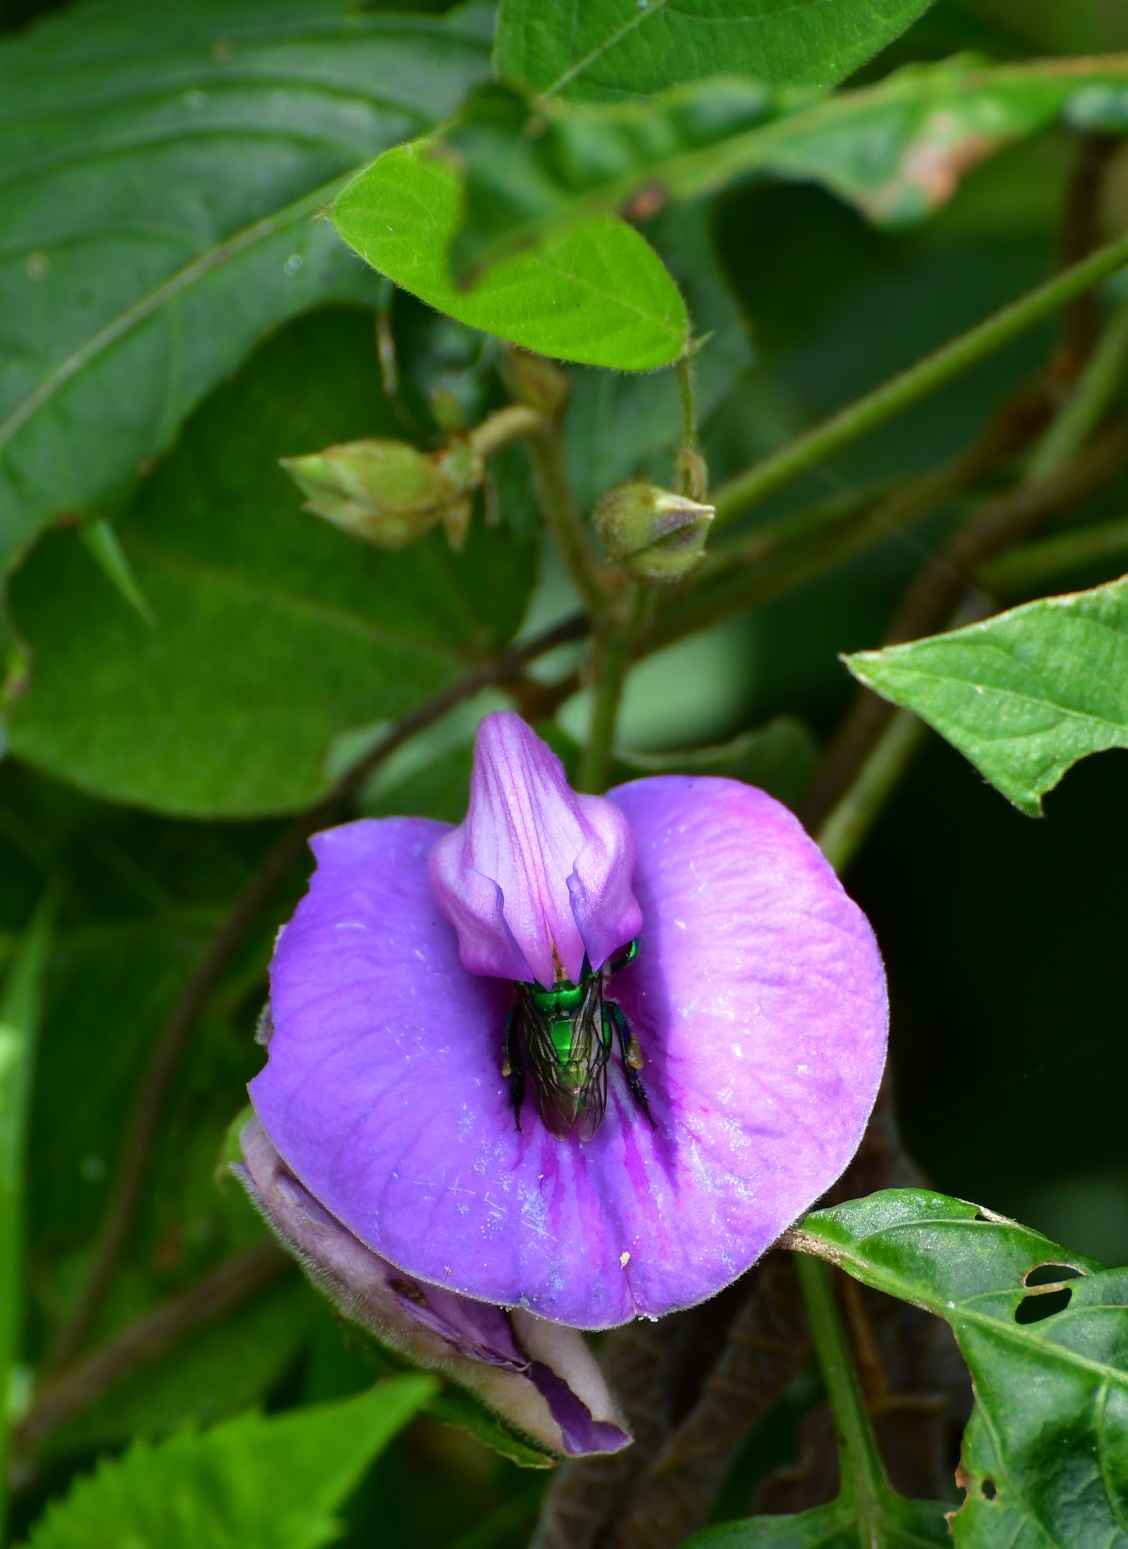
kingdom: Plantae
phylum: Tracheophyta
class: Magnoliopsida
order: Fabales
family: Fabaceae
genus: Centrosema
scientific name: Centrosema virginianum
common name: Butterfly-pea
